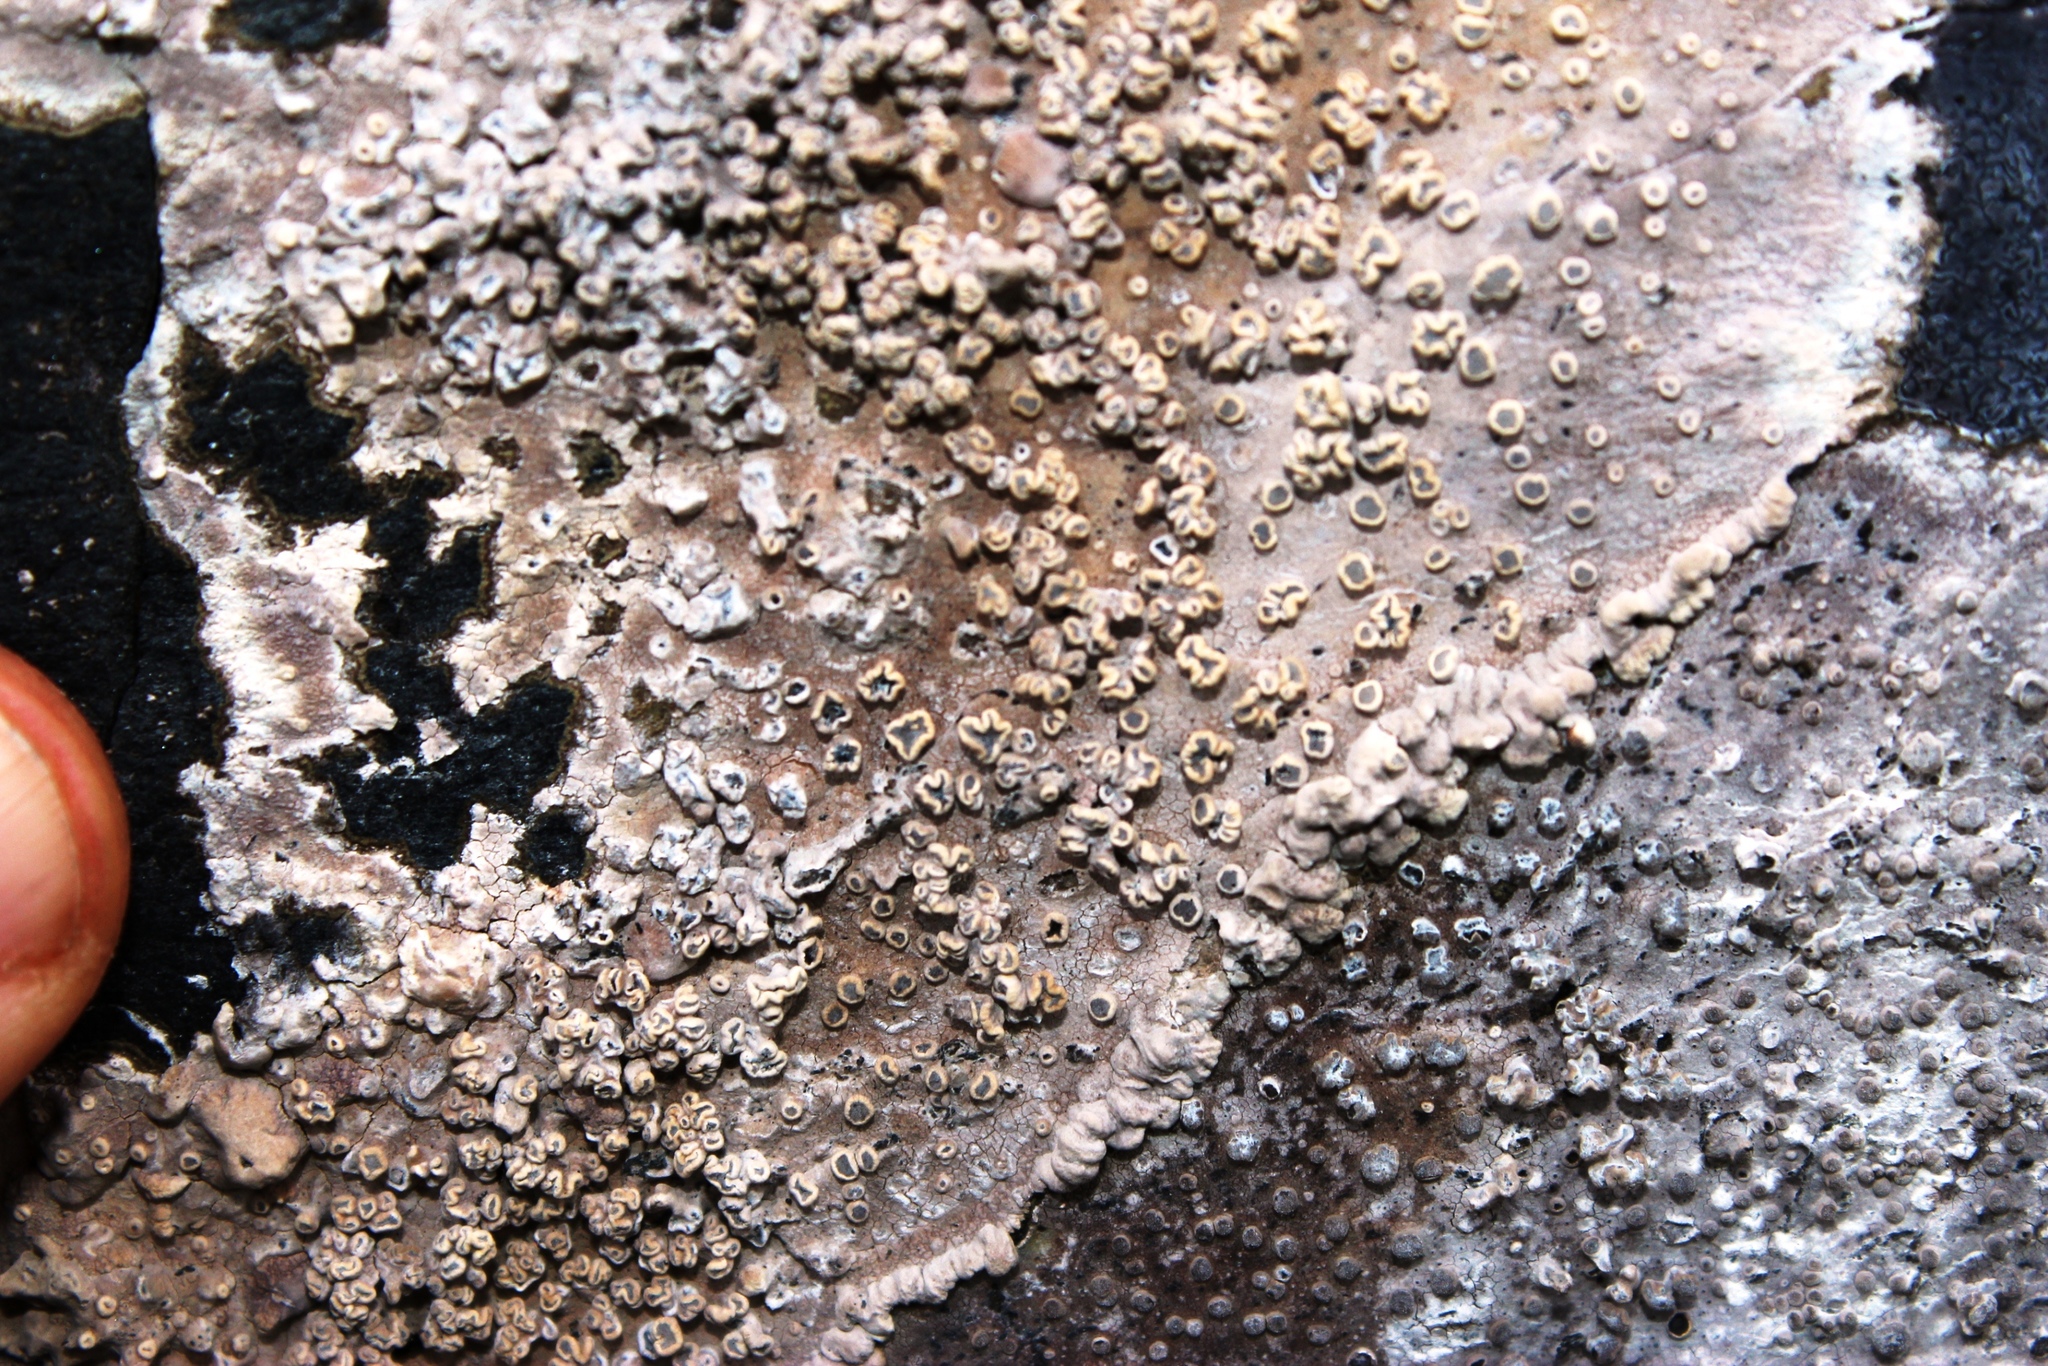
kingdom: Fungi
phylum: Ascomycota
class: Arthoniomycetes
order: Arthoniales
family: Roccellaceae
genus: Roccellina
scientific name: Roccellina capensis
